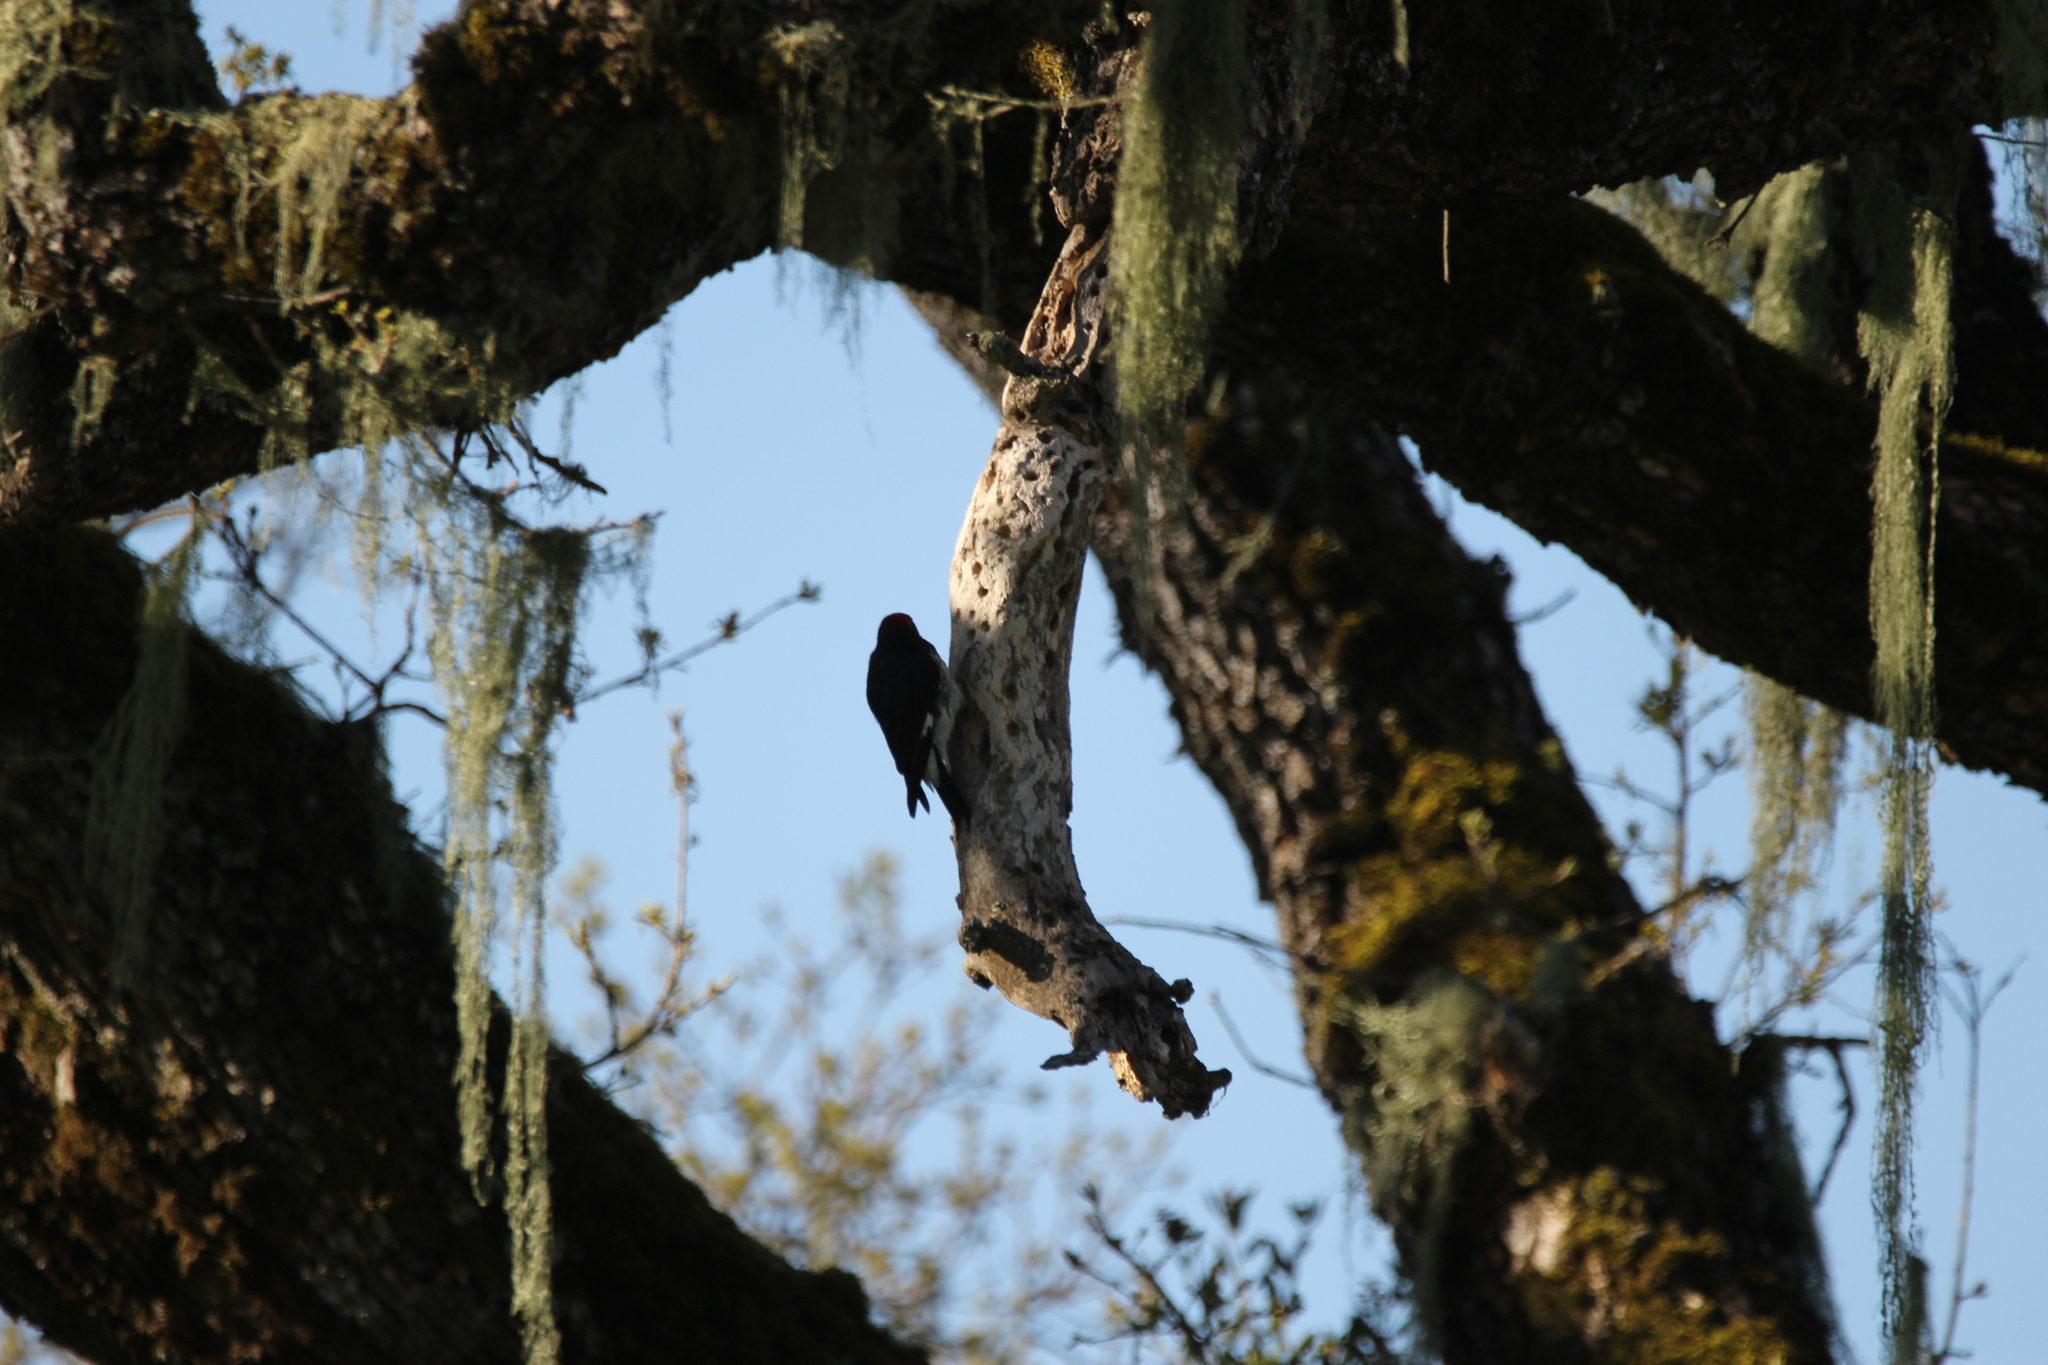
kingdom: Animalia
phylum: Chordata
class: Aves
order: Piciformes
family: Picidae
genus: Melanerpes
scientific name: Melanerpes formicivorus
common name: Acorn woodpecker
